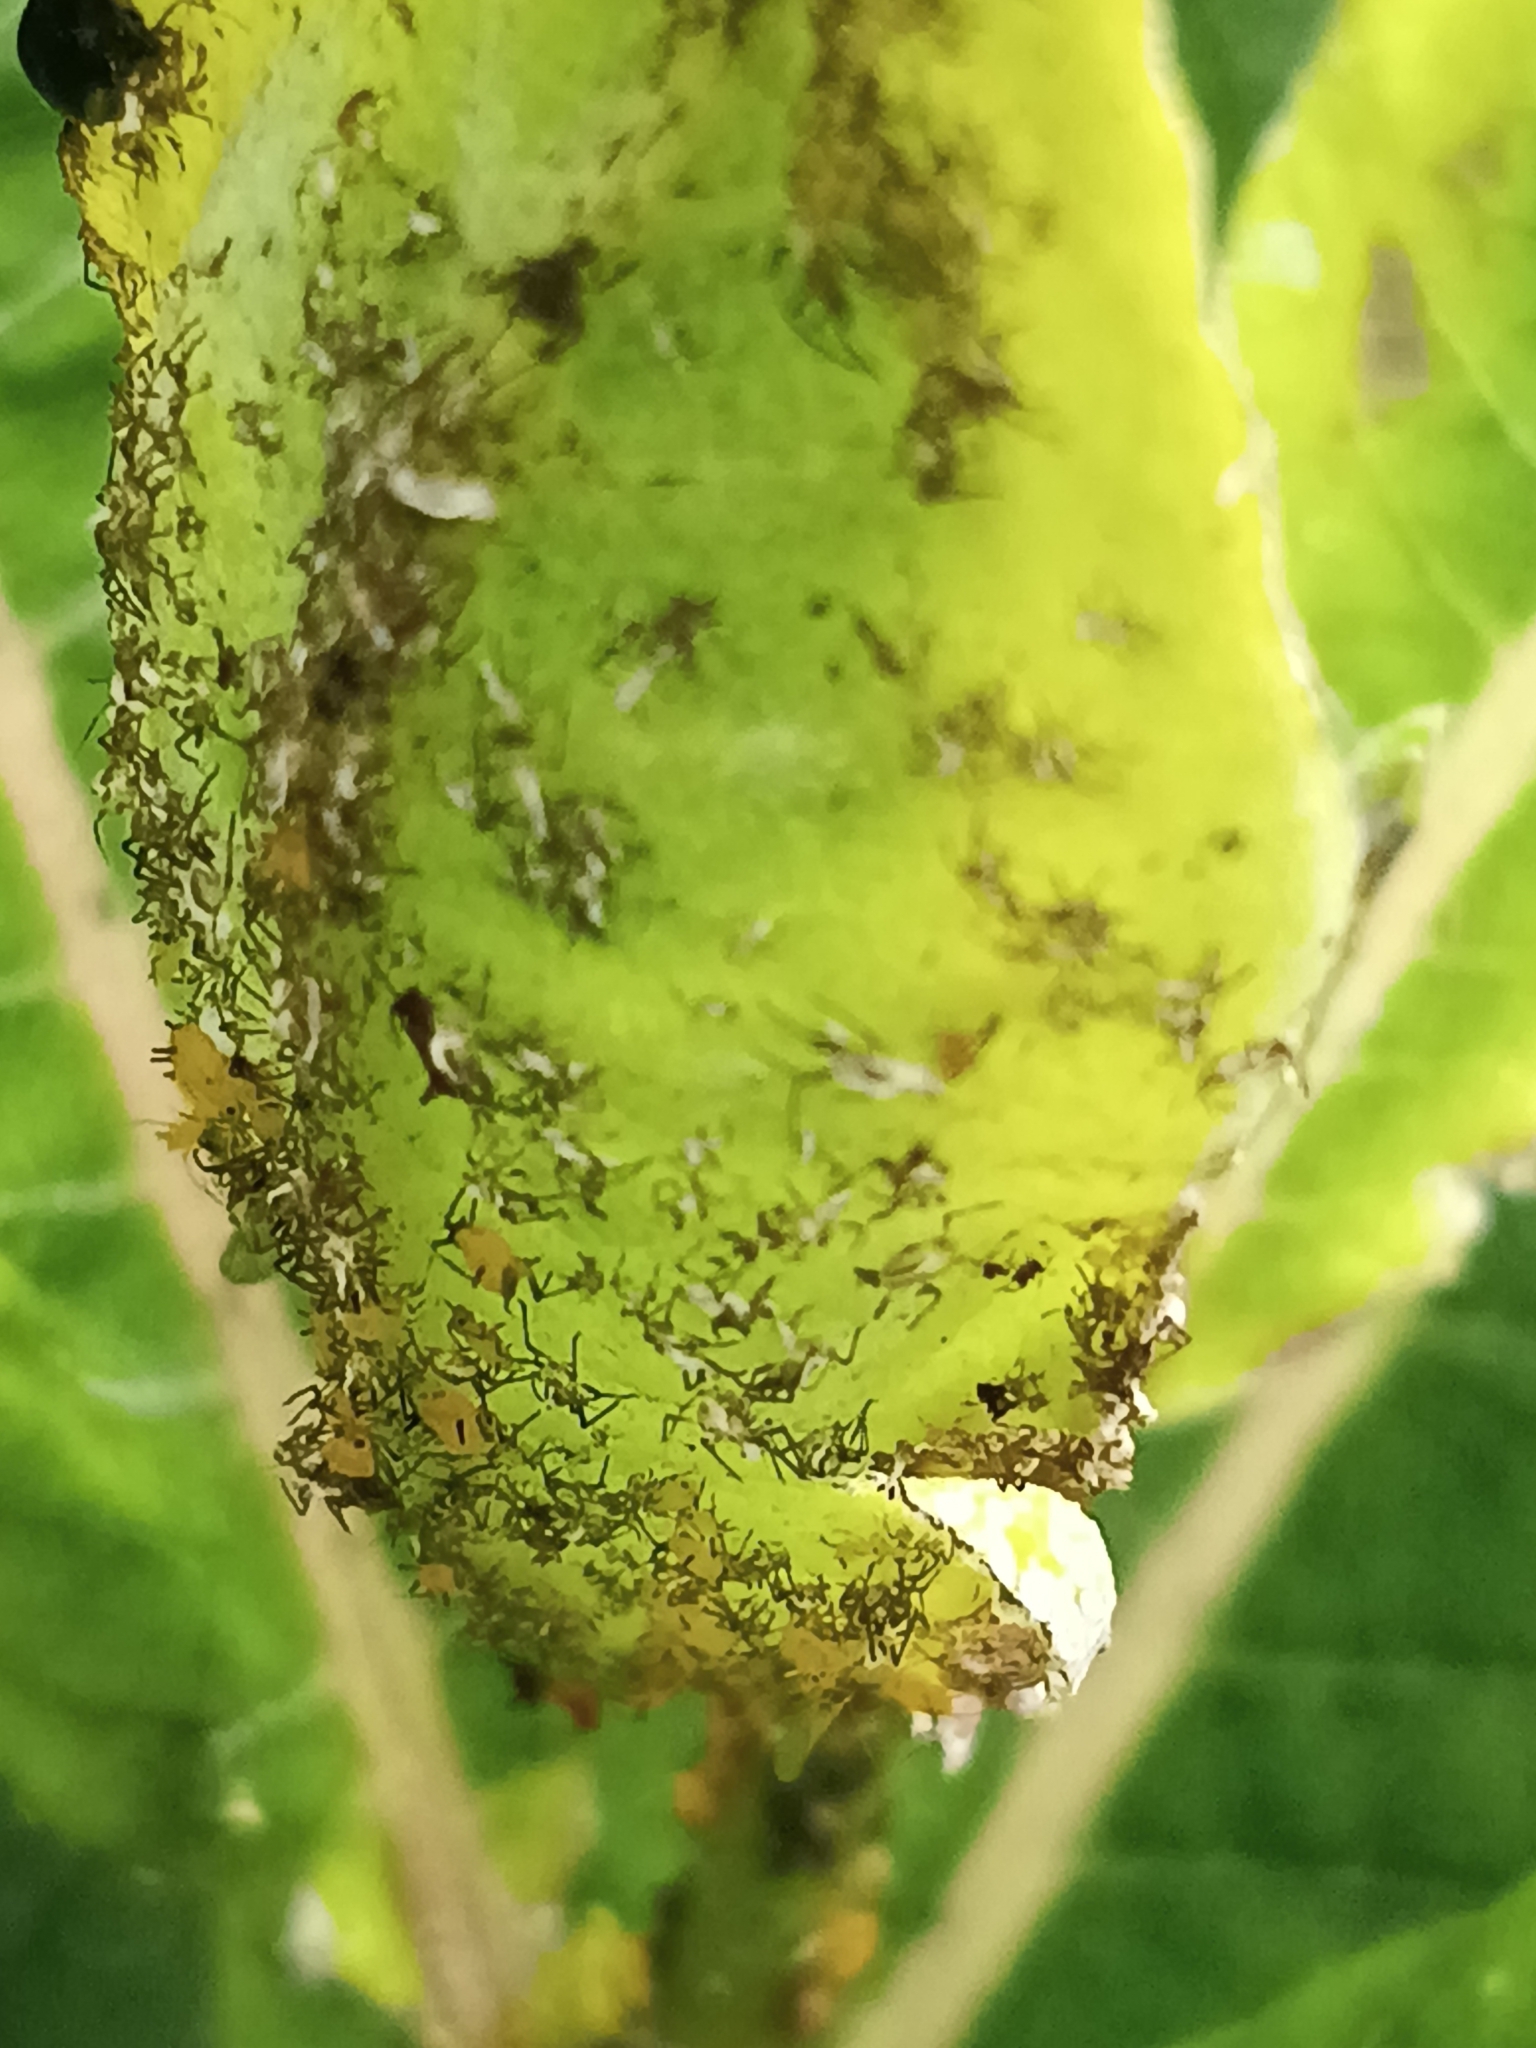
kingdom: Animalia
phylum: Arthropoda
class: Insecta
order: Hemiptera
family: Aphididae
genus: Aphis
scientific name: Aphis nerii
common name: Oleander aphid
